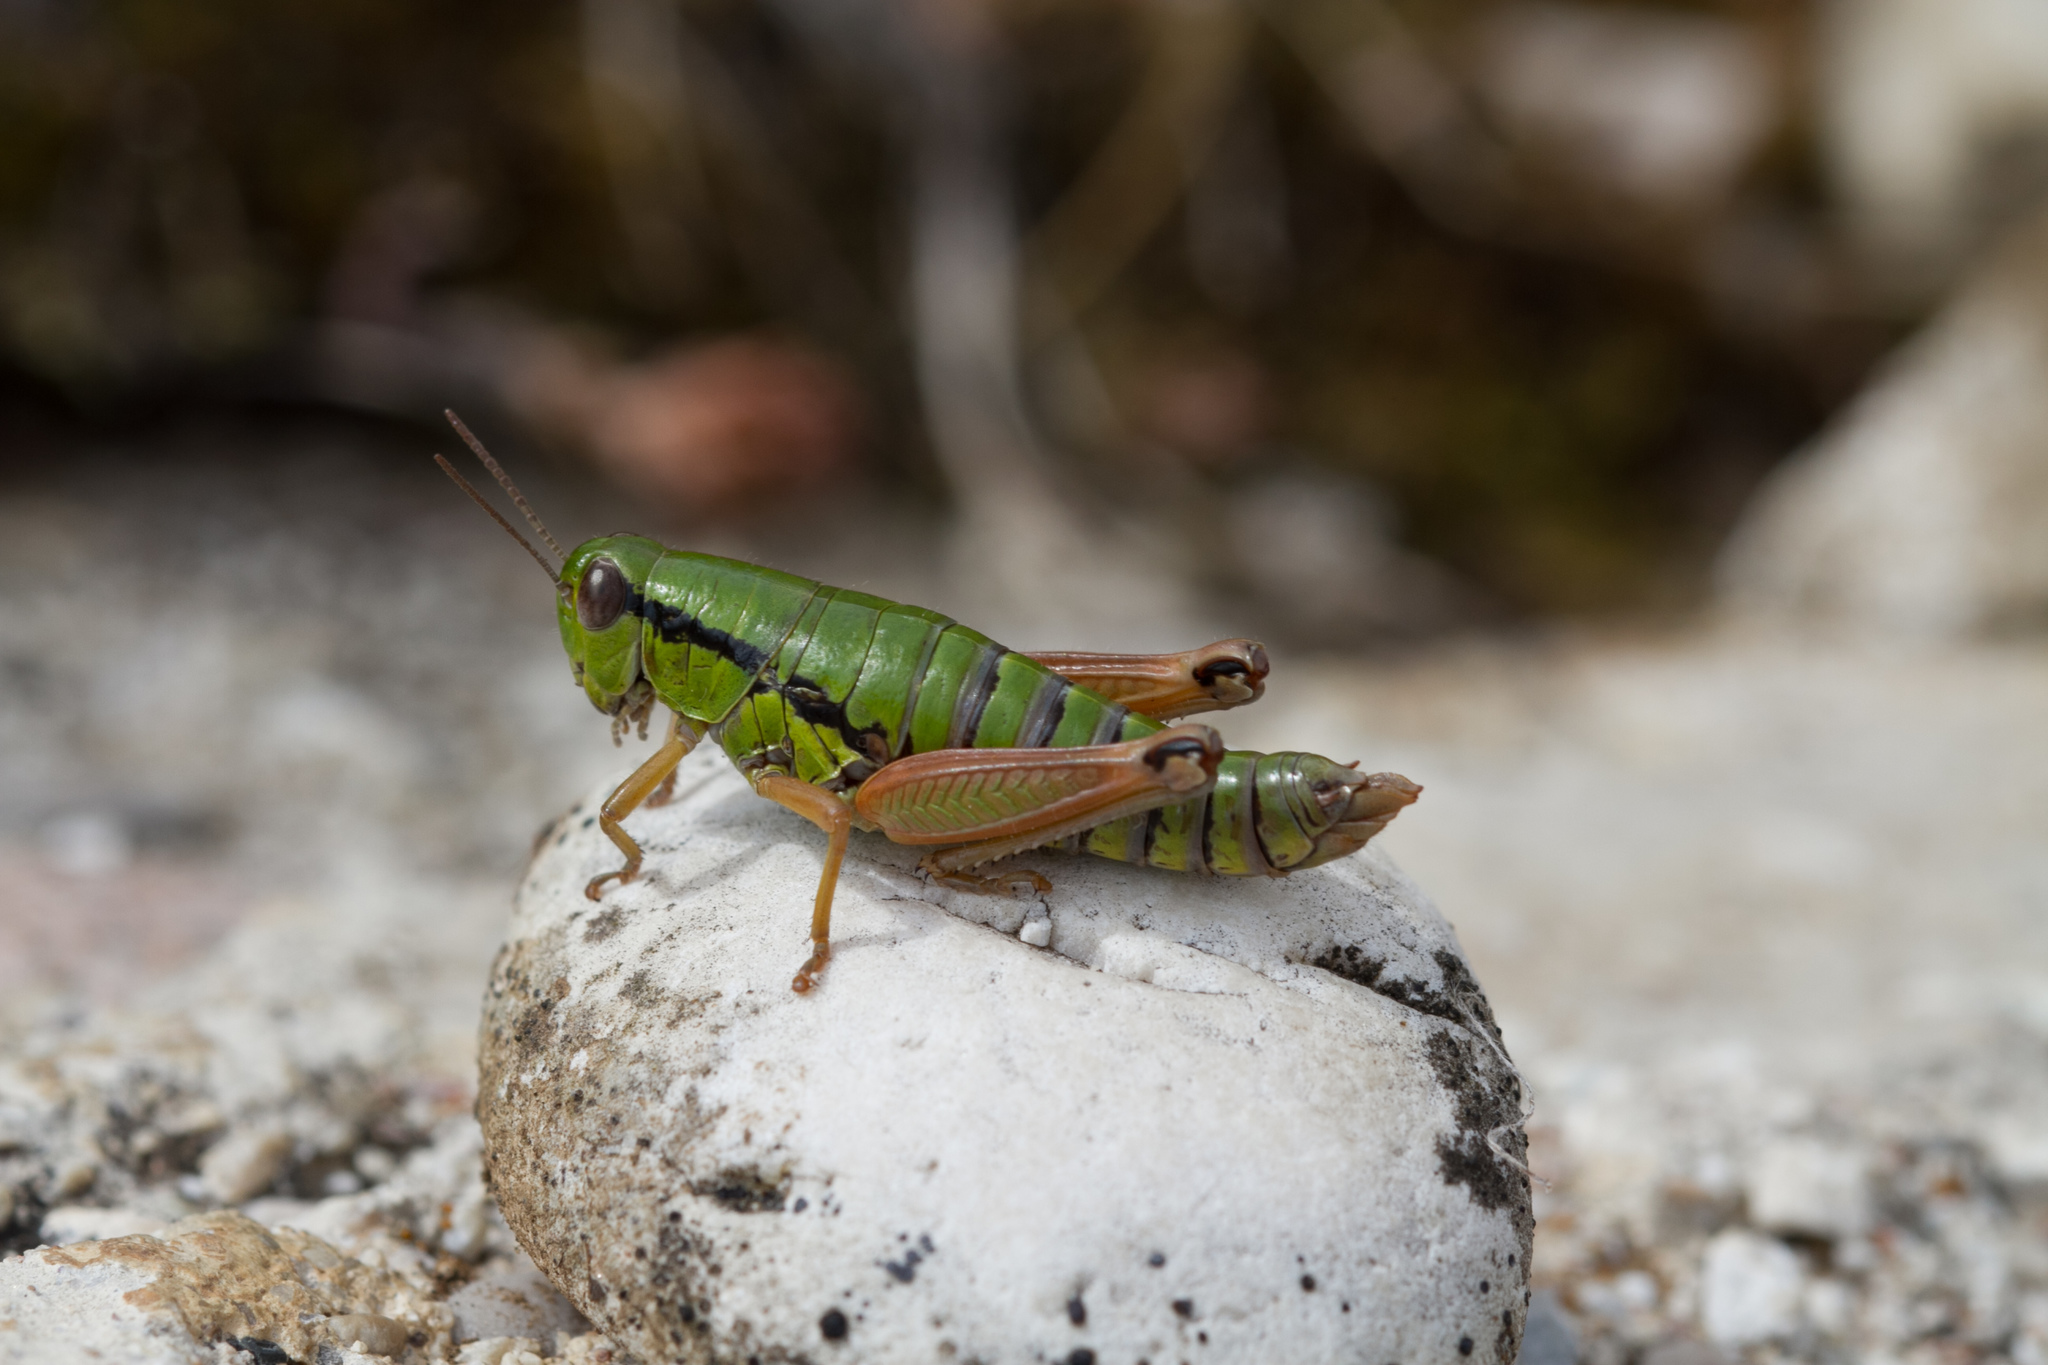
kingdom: Animalia
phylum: Arthropoda
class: Insecta
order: Orthoptera
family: Acrididae
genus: Pseudoprumna
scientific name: Pseudoprumna baldensis
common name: Baldo mountain grasshopper
